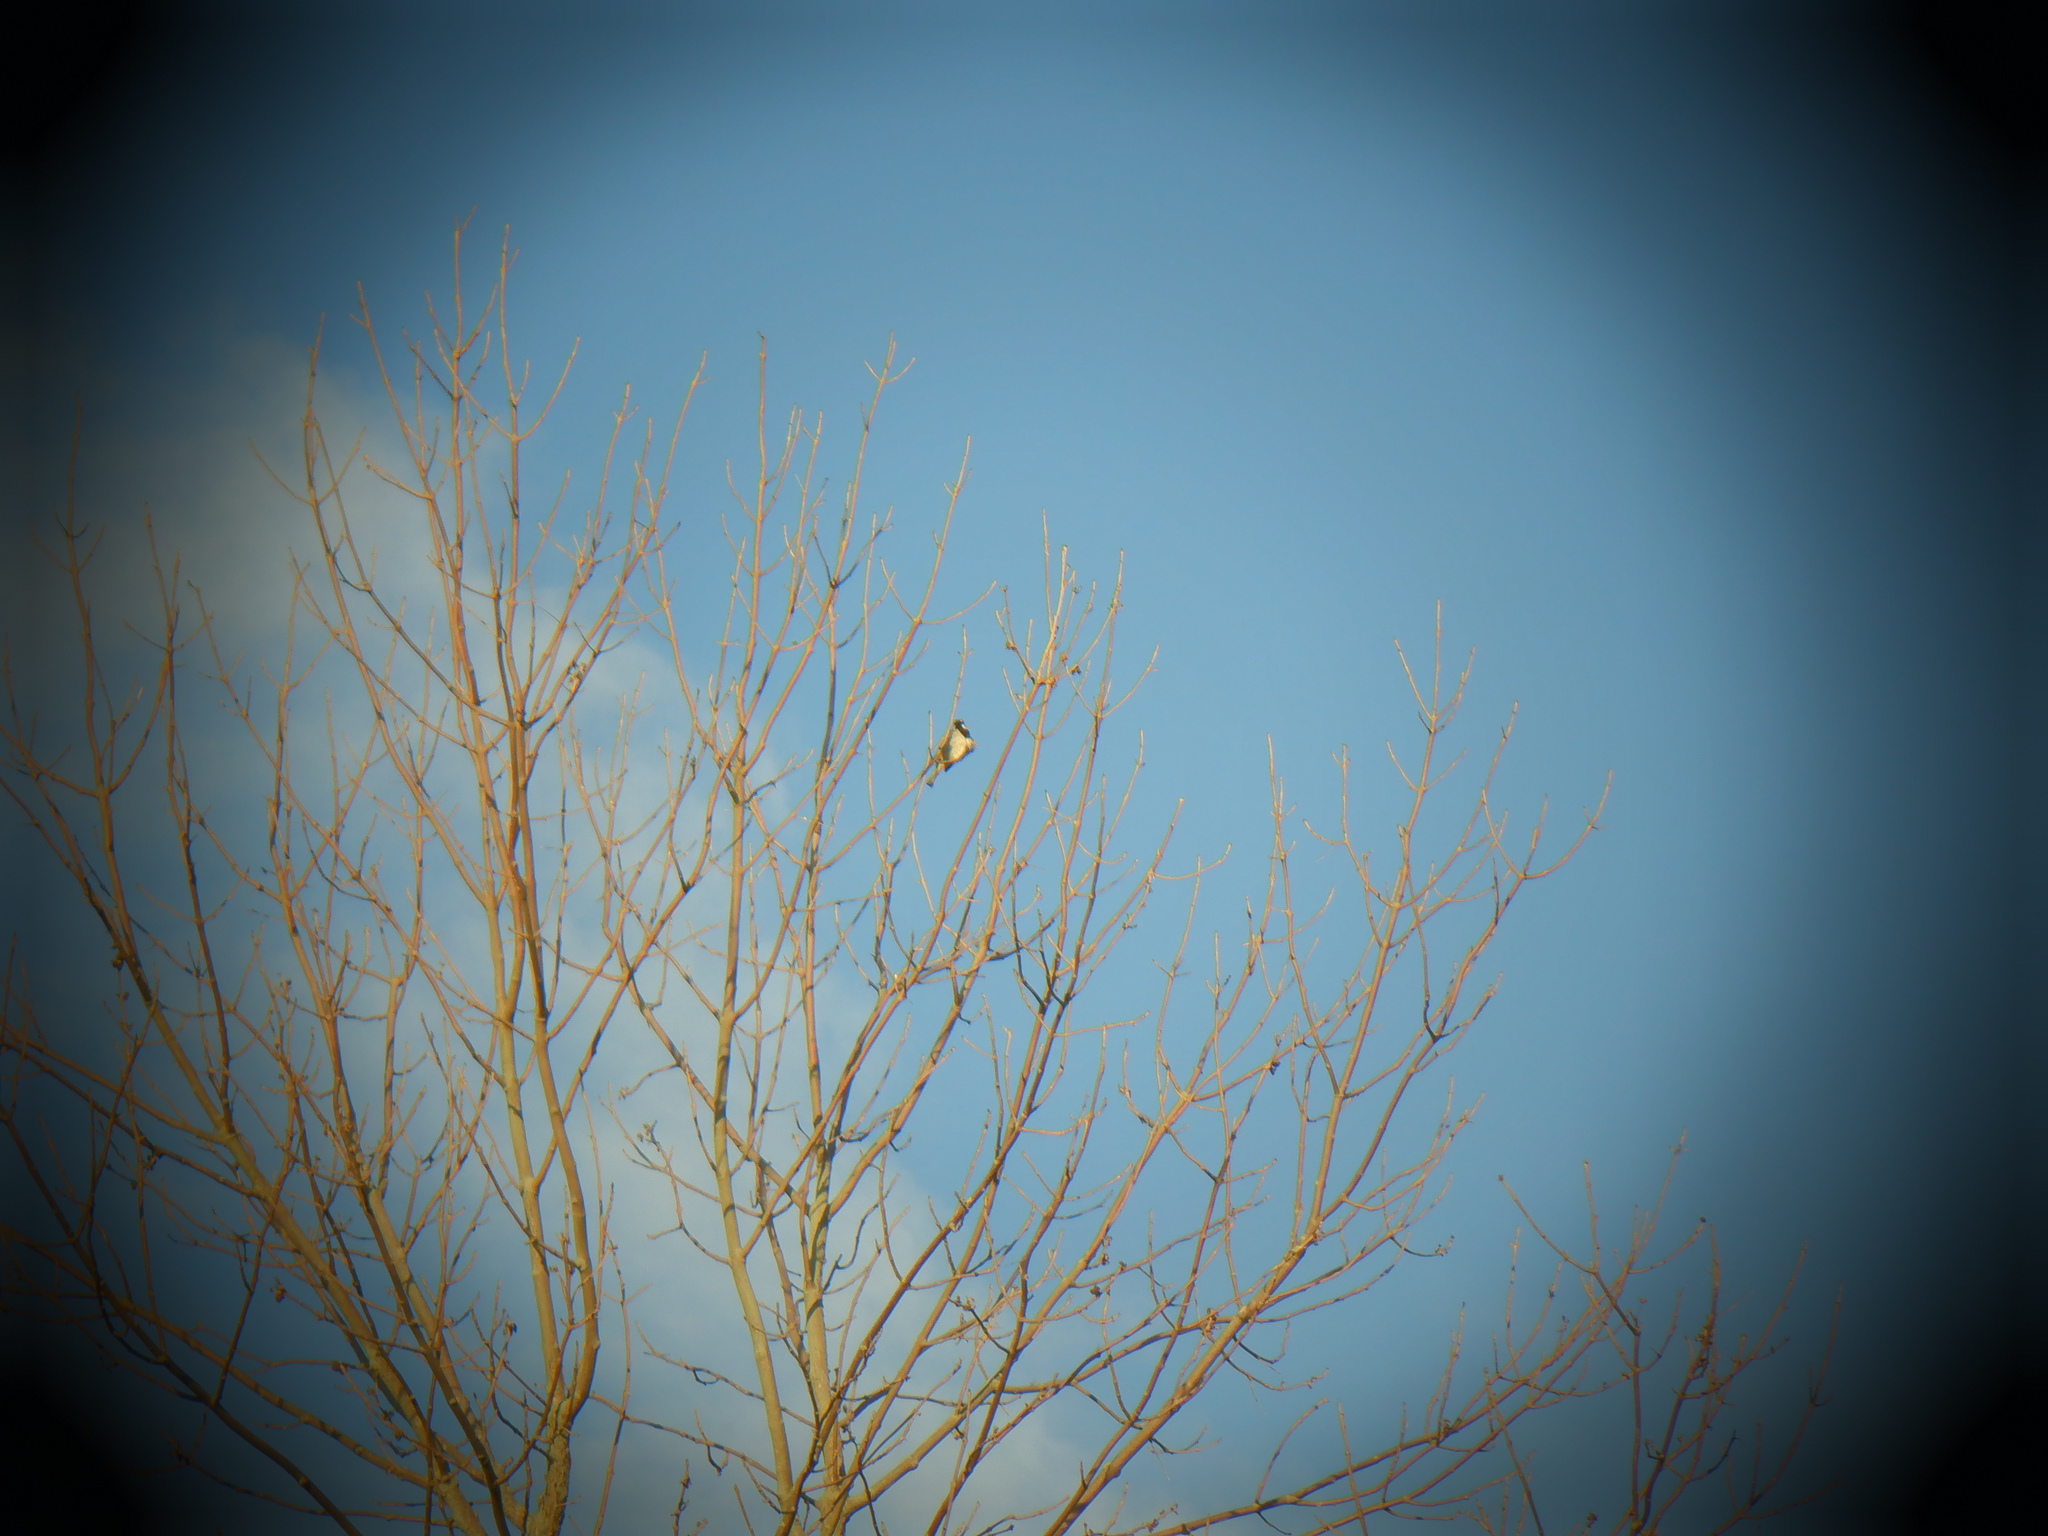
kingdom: Animalia
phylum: Chordata
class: Aves
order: Passeriformes
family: Paridae
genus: Poecile
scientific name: Poecile atricapillus
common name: Black-capped chickadee
